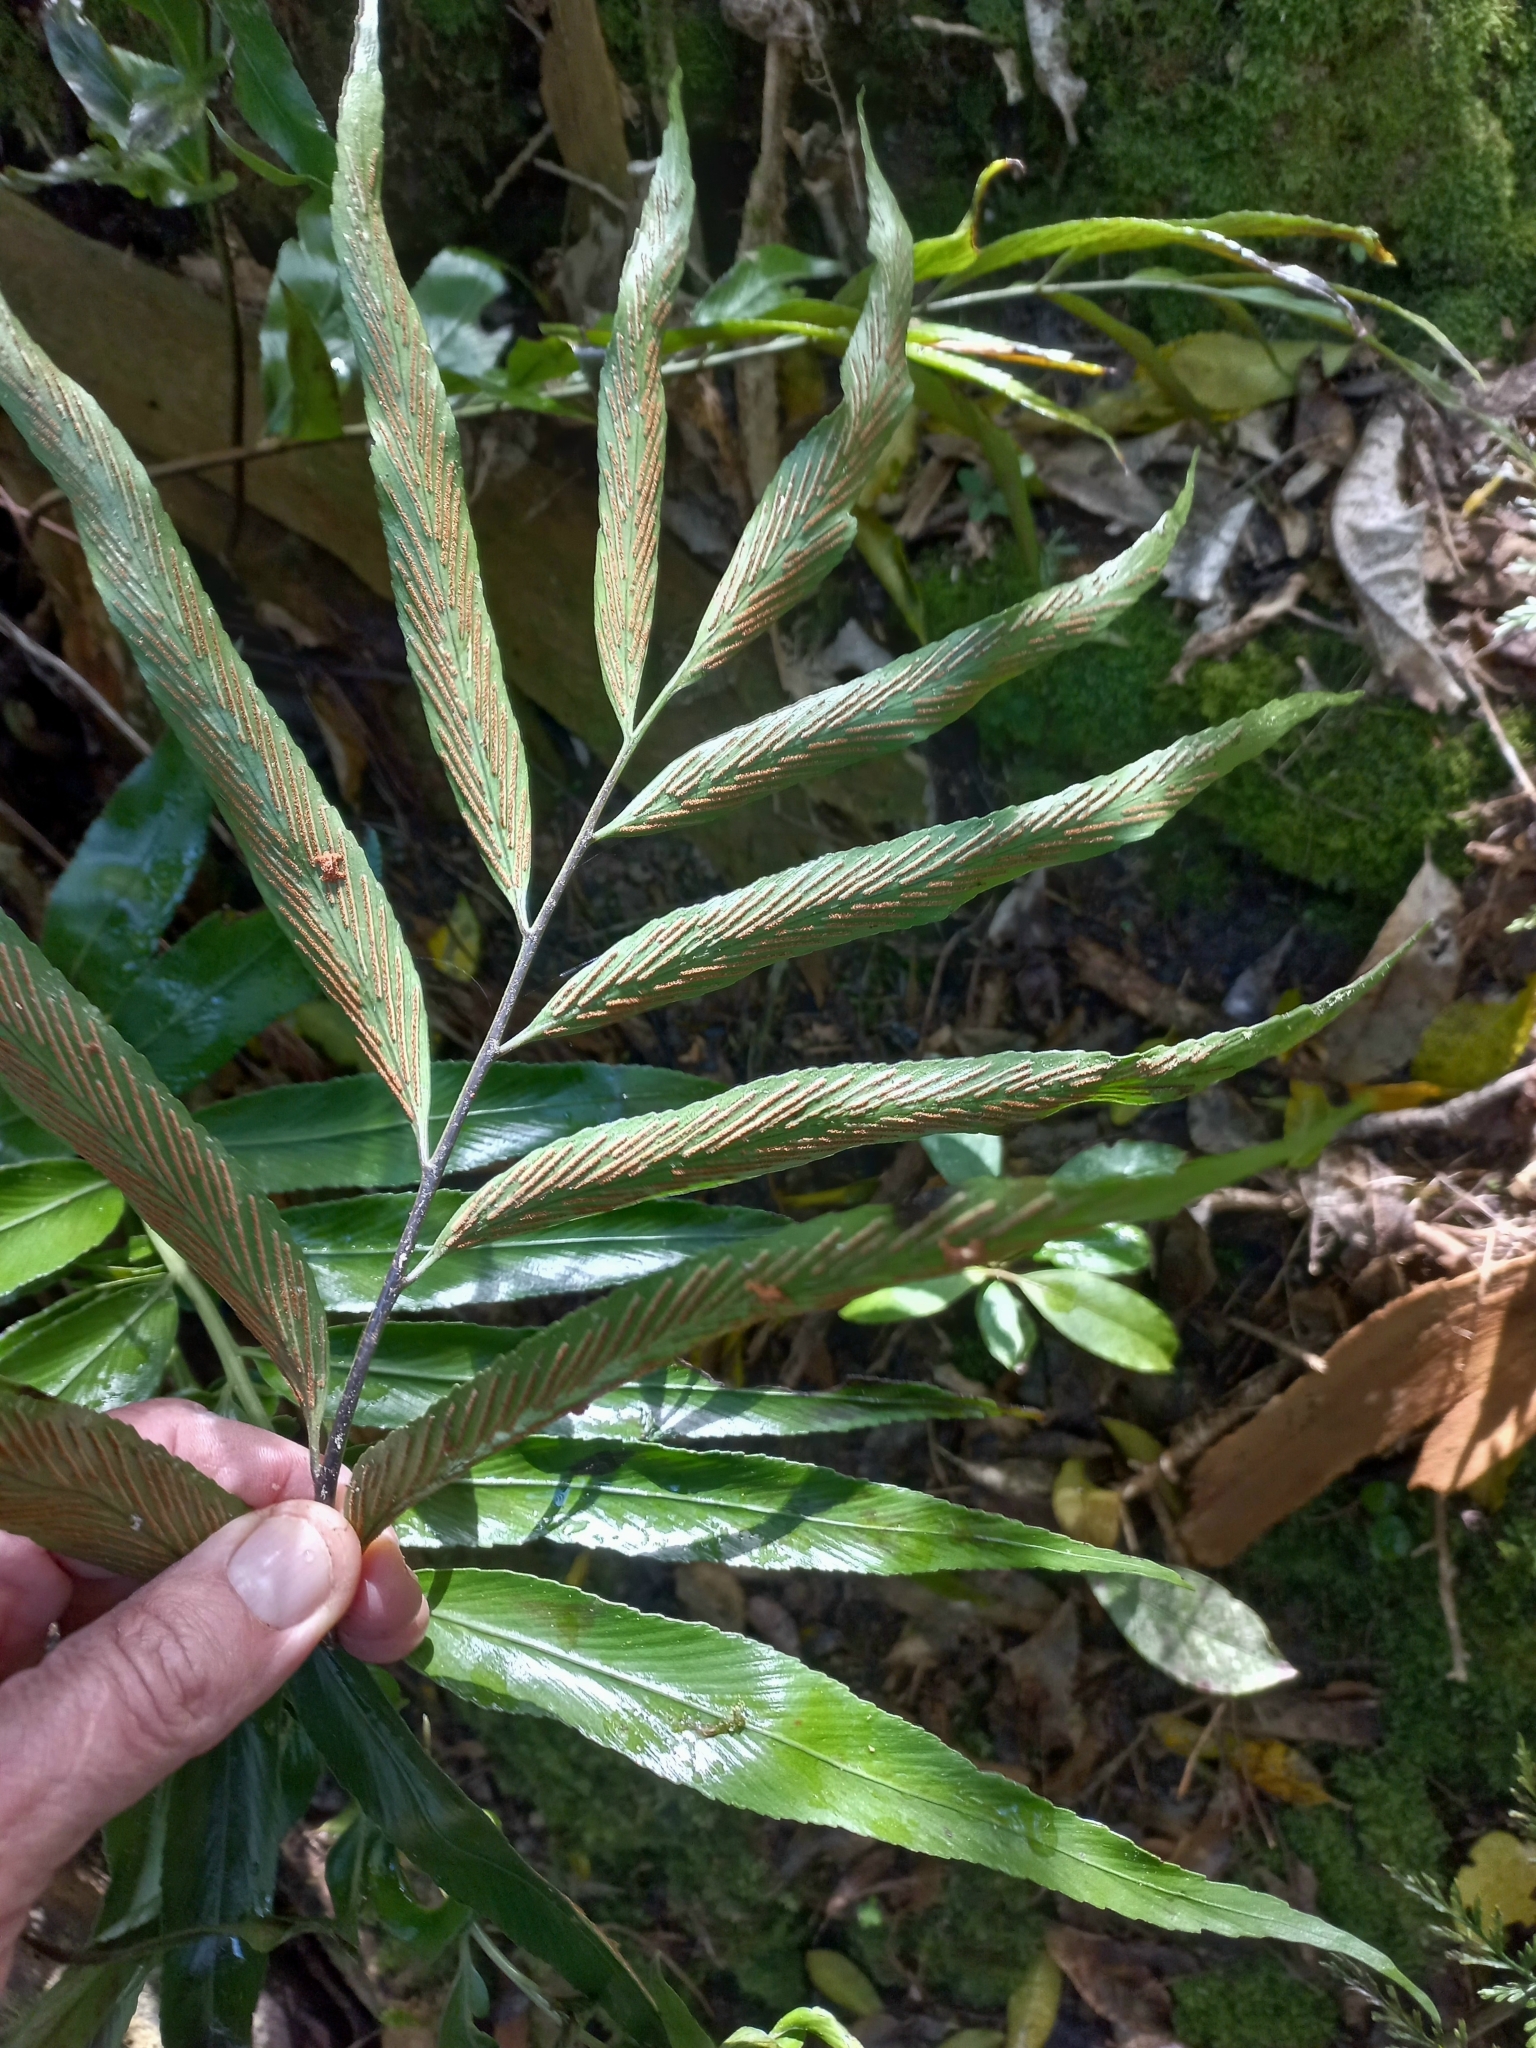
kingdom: Plantae
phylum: Tracheophyta
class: Polypodiopsida
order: Polypodiales
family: Aspleniaceae
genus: Asplenium
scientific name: Asplenium oblongifolium
